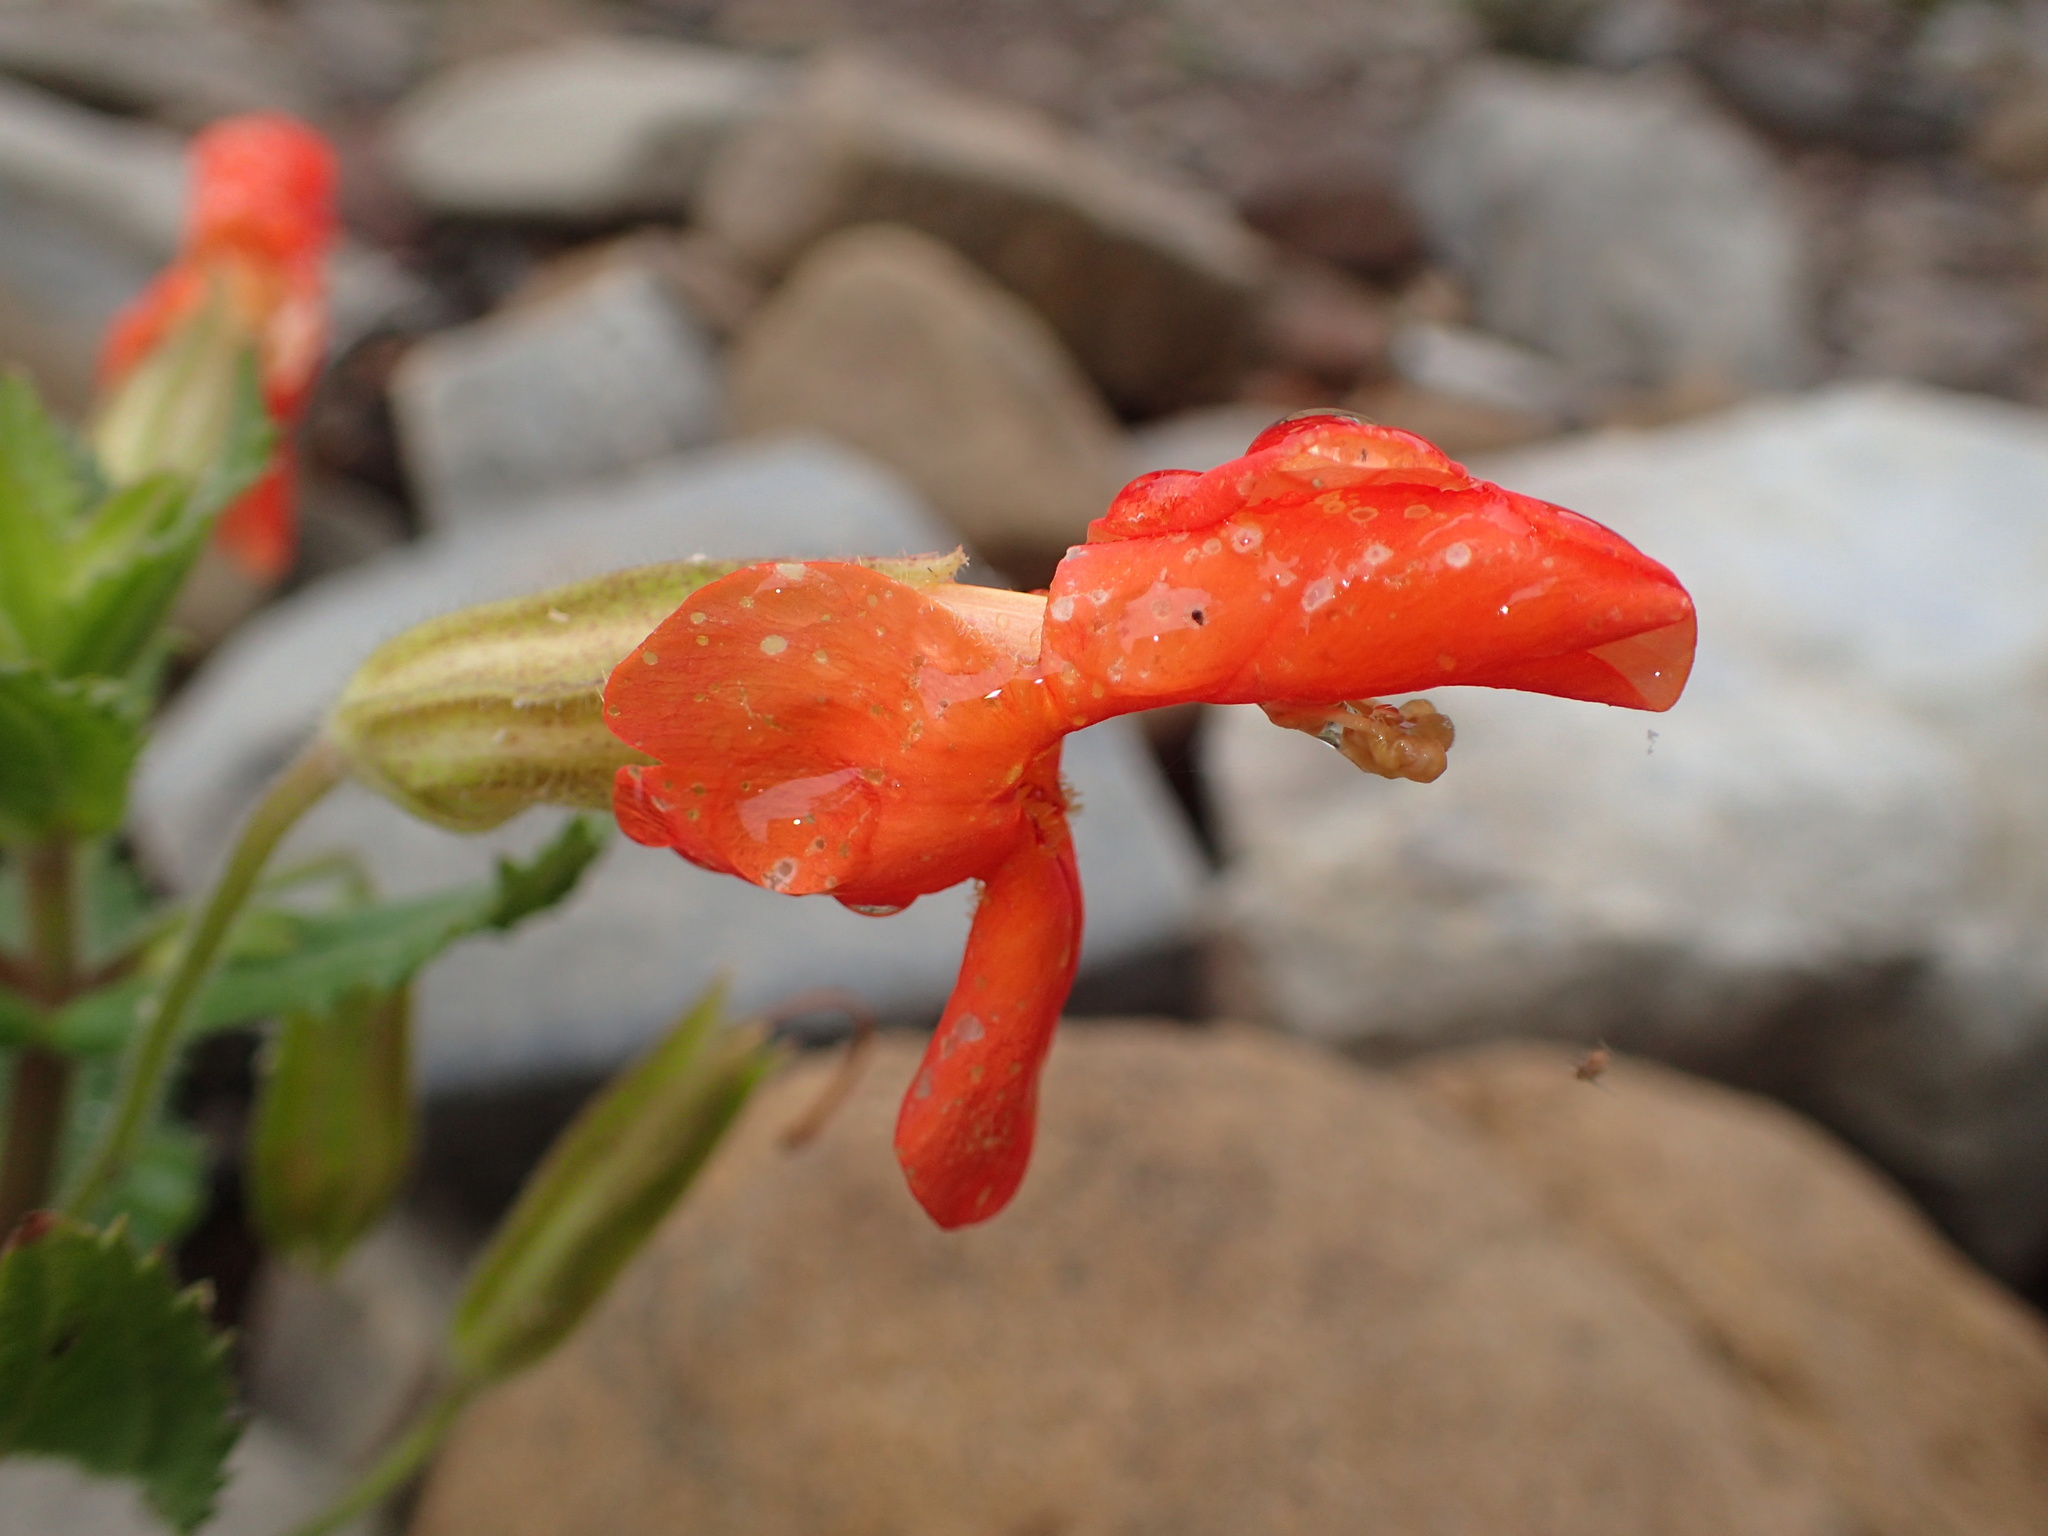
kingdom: Plantae
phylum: Tracheophyta
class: Magnoliopsida
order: Lamiales
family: Phrymaceae
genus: Erythranthe
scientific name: Erythranthe cardinalis
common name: Scarlet monkey-flower
